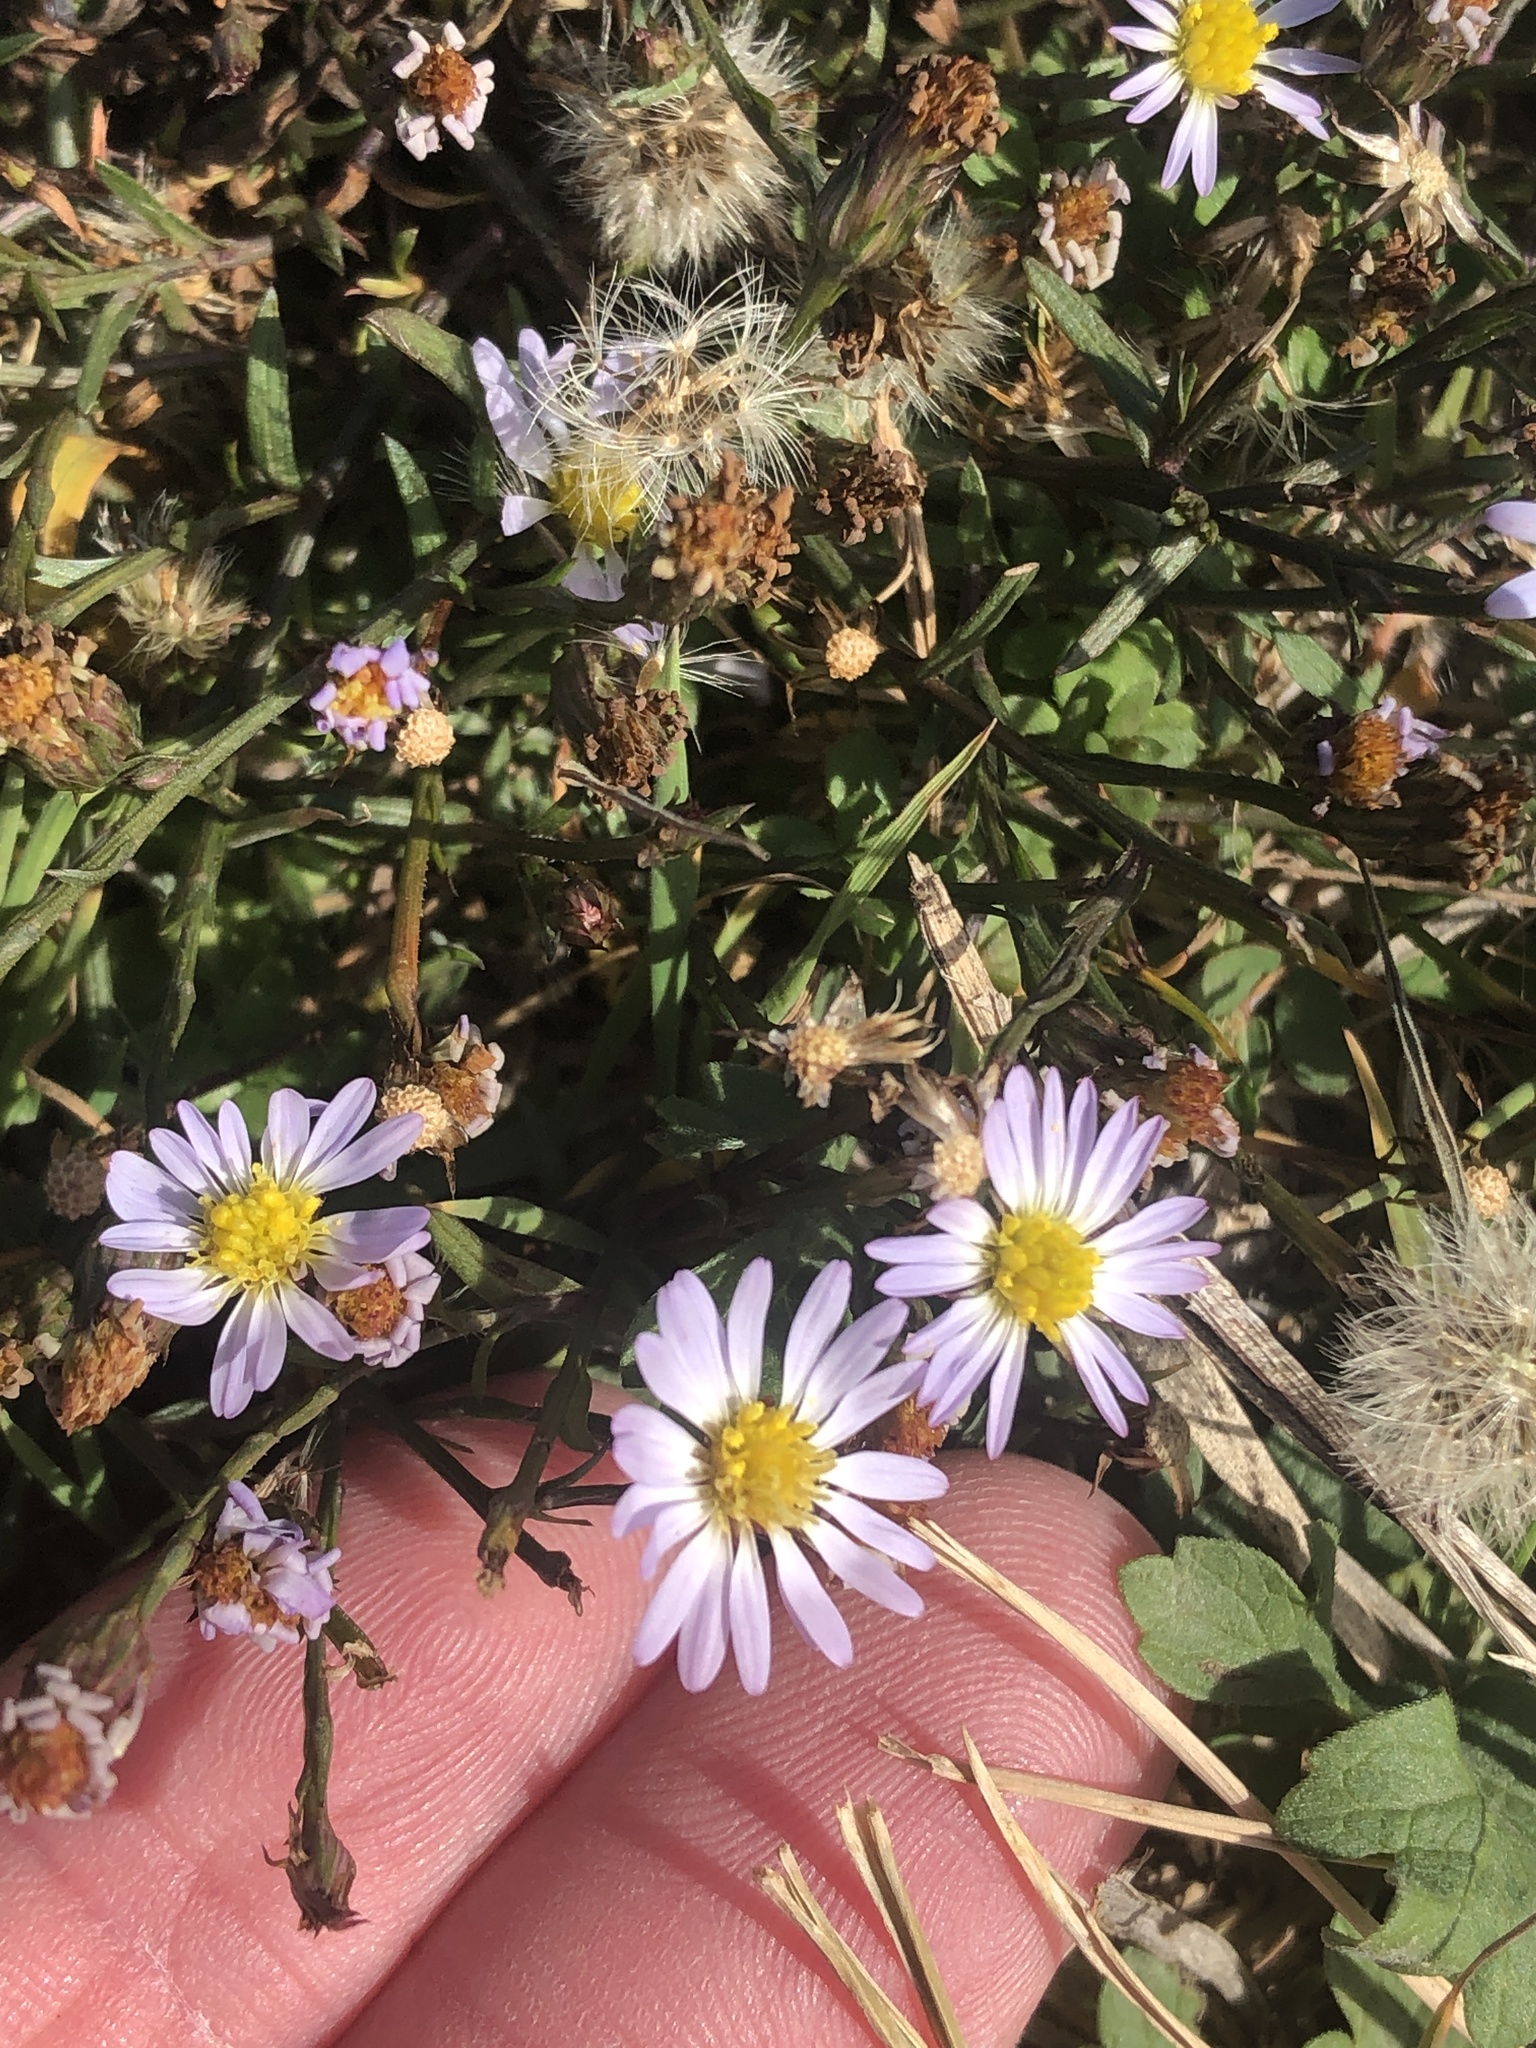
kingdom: Plantae
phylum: Tracheophyta
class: Magnoliopsida
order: Asterales
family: Asteraceae
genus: Symphyotrichum
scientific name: Symphyotrichum divaricatum
